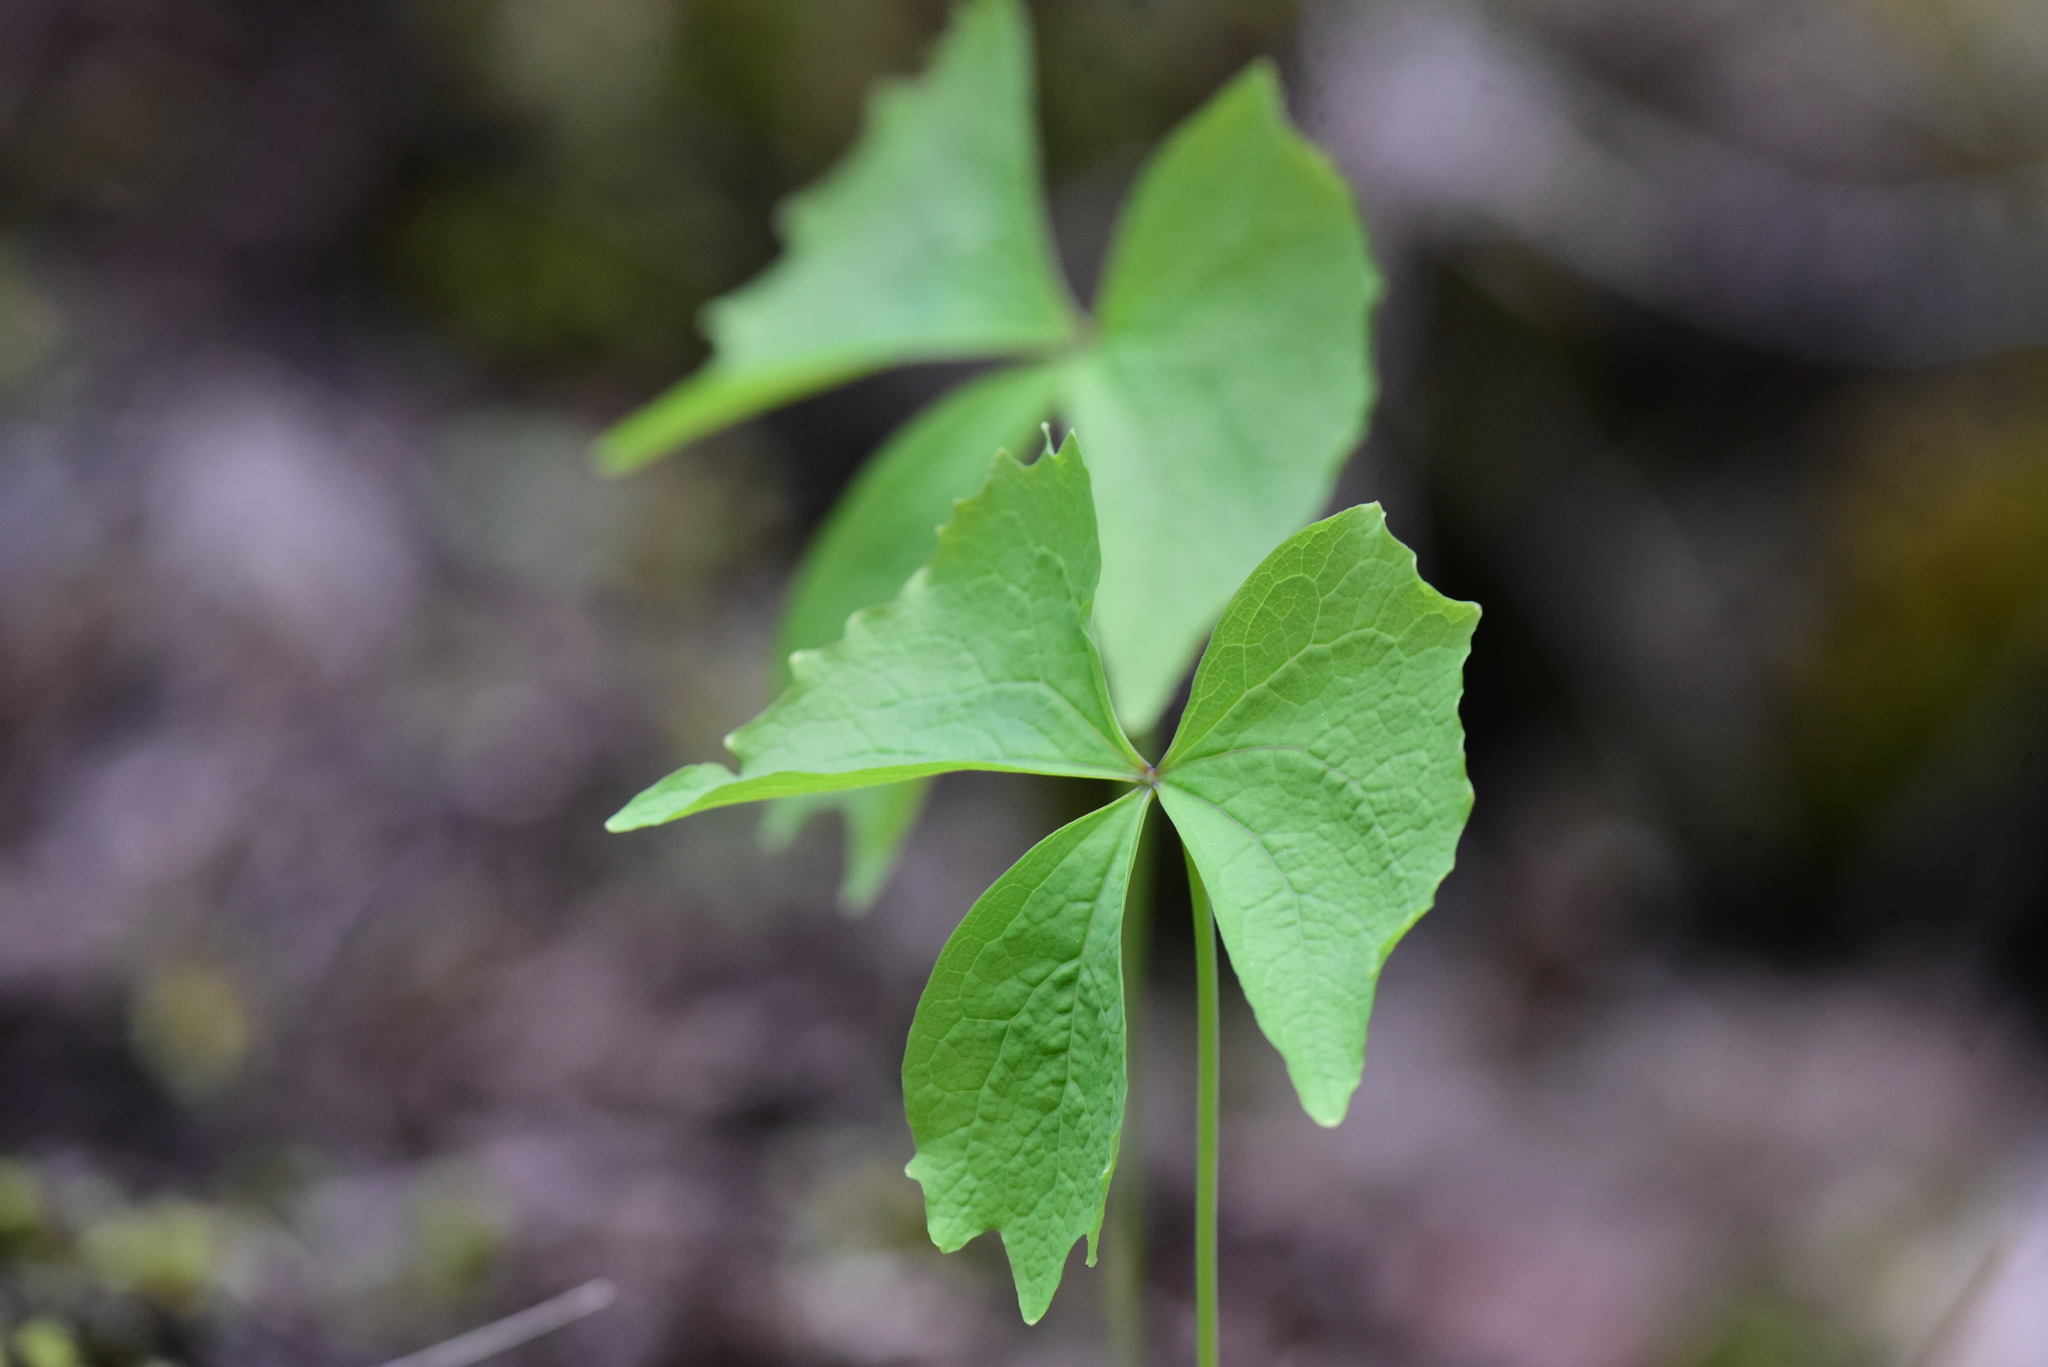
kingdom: Plantae
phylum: Tracheophyta
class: Magnoliopsida
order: Ranunculales
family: Berberidaceae
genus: Achlys
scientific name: Achlys triphylla
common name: Vanilla-leaf
